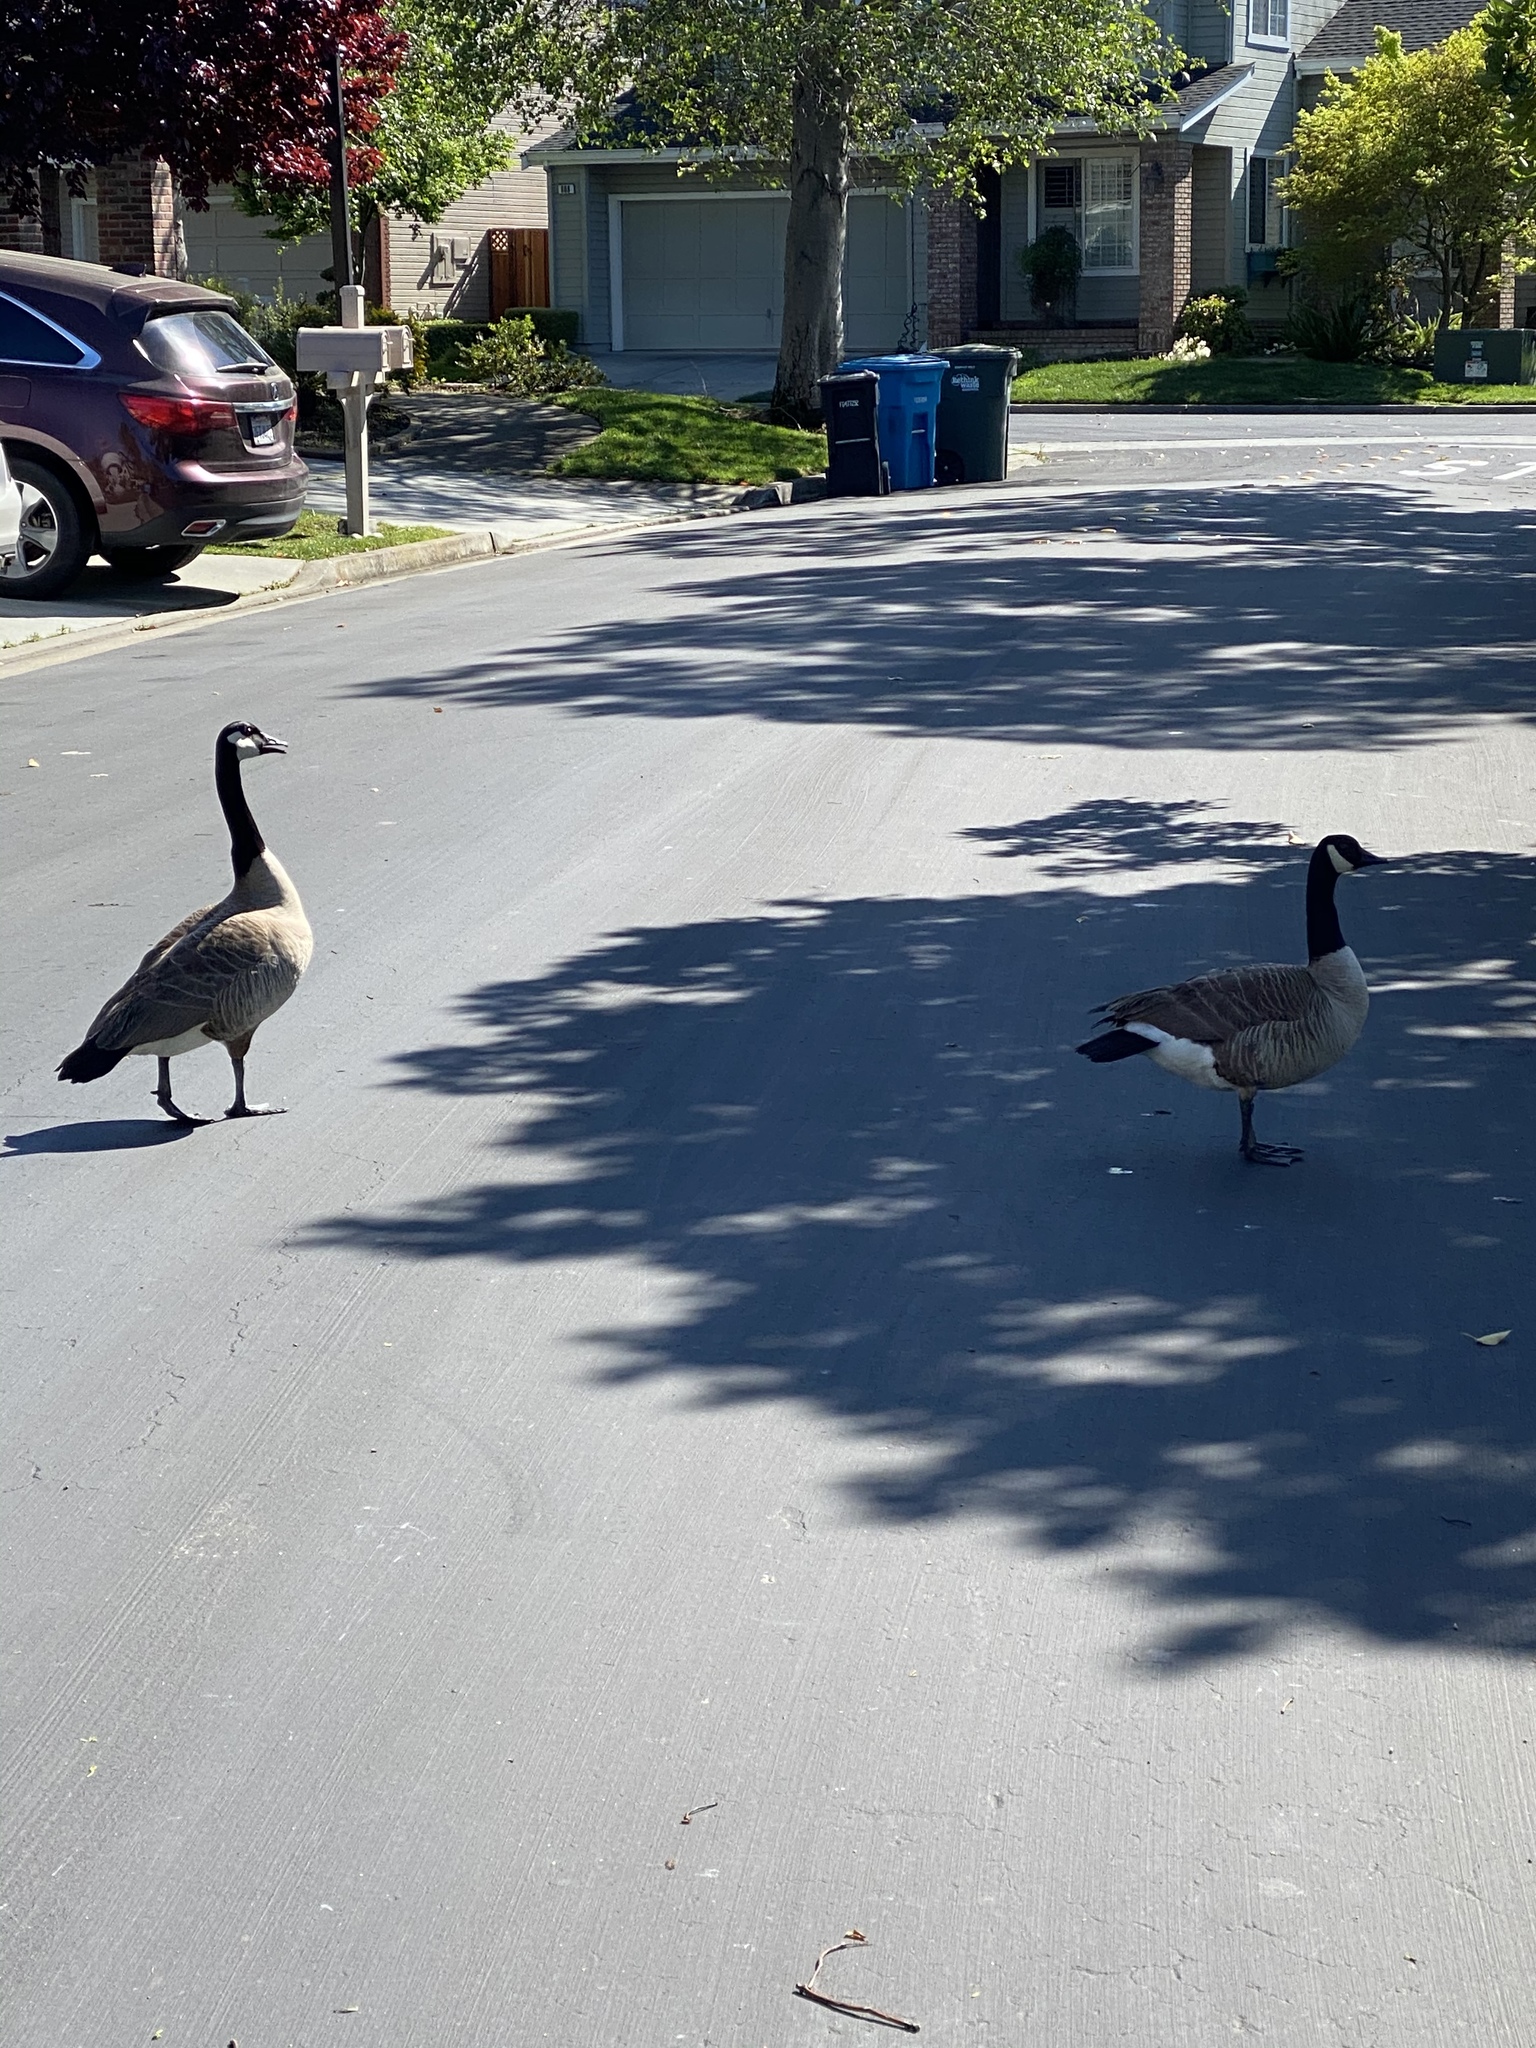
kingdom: Animalia
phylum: Chordata
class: Aves
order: Anseriformes
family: Anatidae
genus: Branta
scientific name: Branta canadensis
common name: Canada goose
